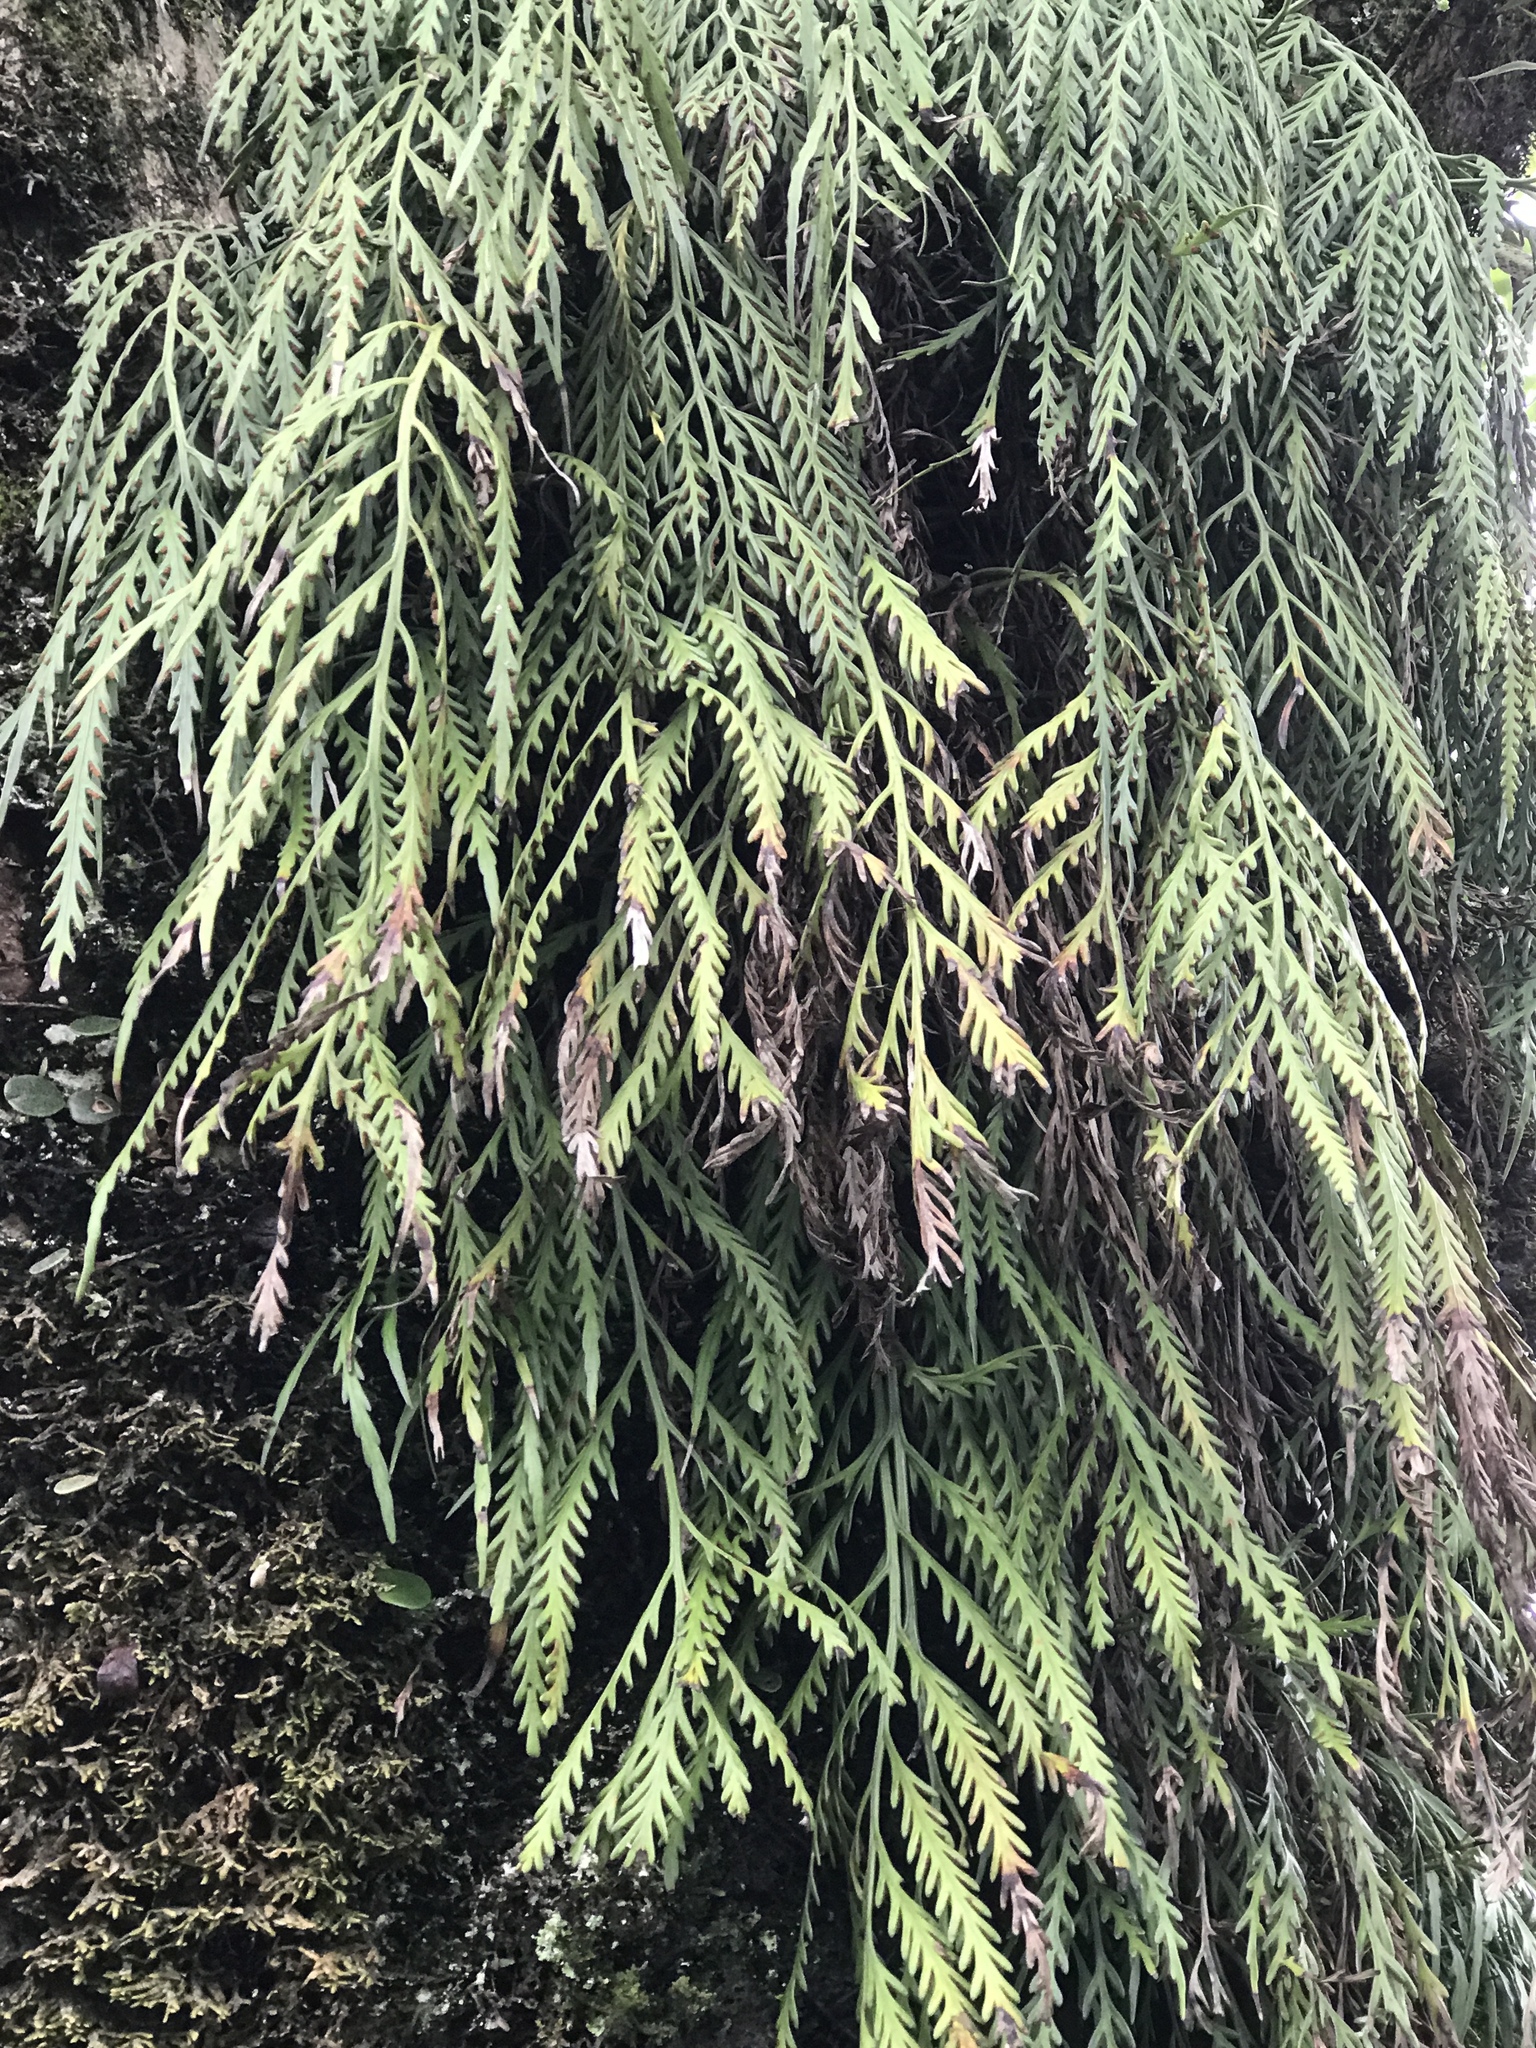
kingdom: Plantae
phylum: Tracheophyta
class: Polypodiopsida
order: Polypodiales
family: Aspleniaceae
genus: Asplenium
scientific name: Asplenium flaccidum
